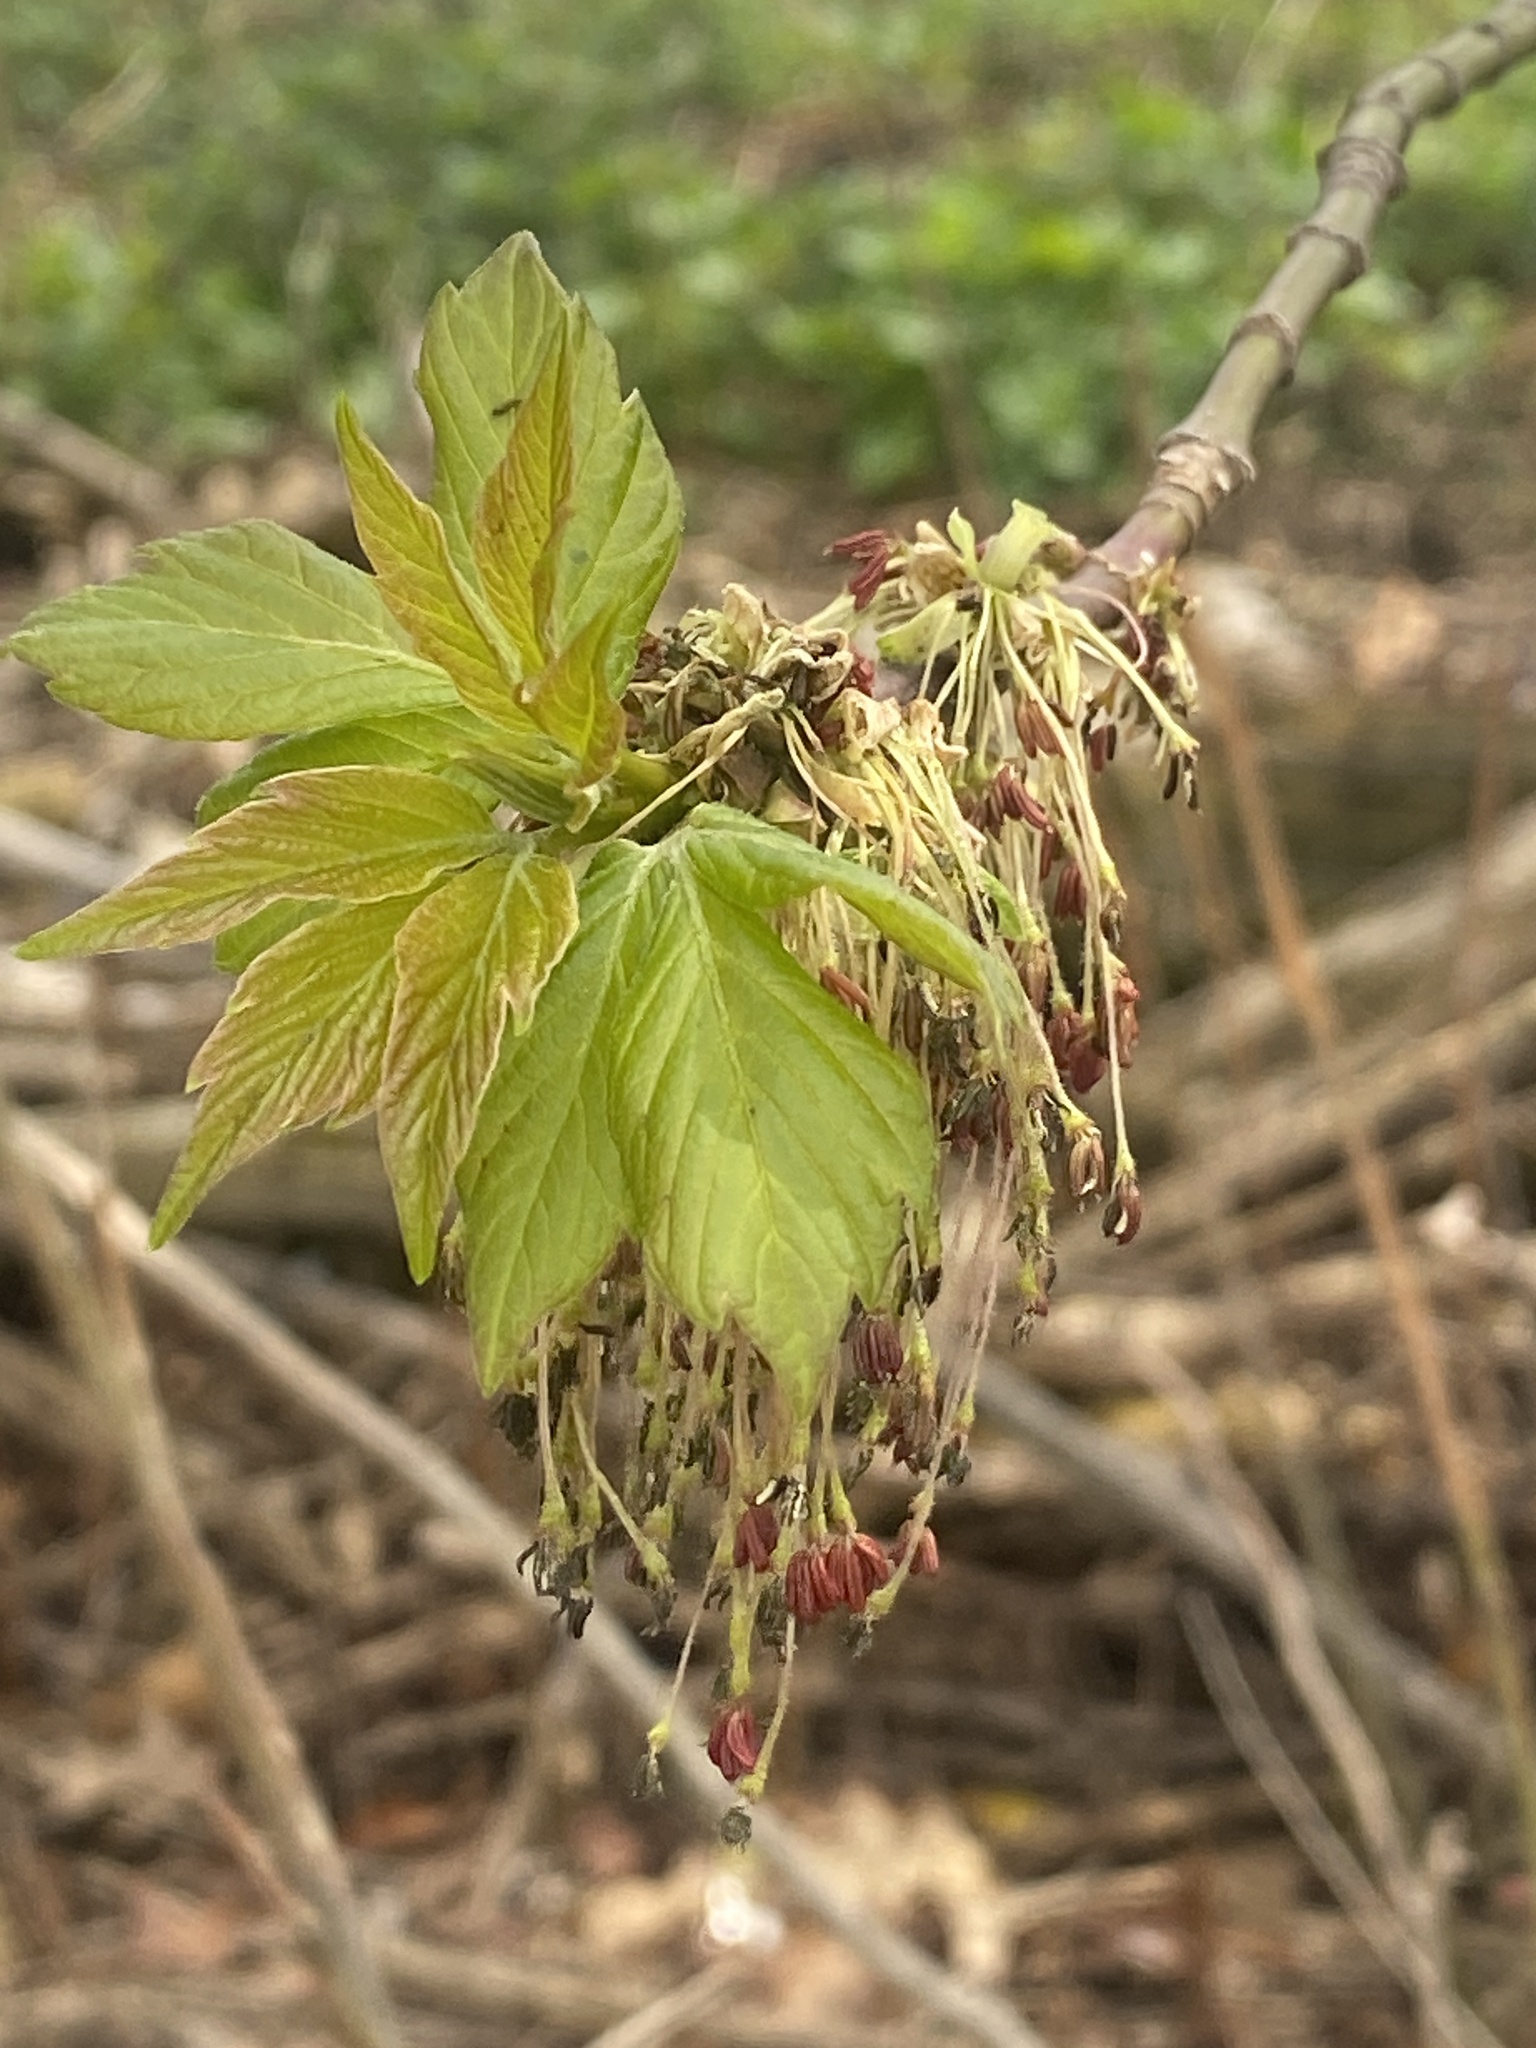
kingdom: Plantae
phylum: Tracheophyta
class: Magnoliopsida
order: Sapindales
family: Sapindaceae
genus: Acer
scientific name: Acer negundo
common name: Ashleaf maple
